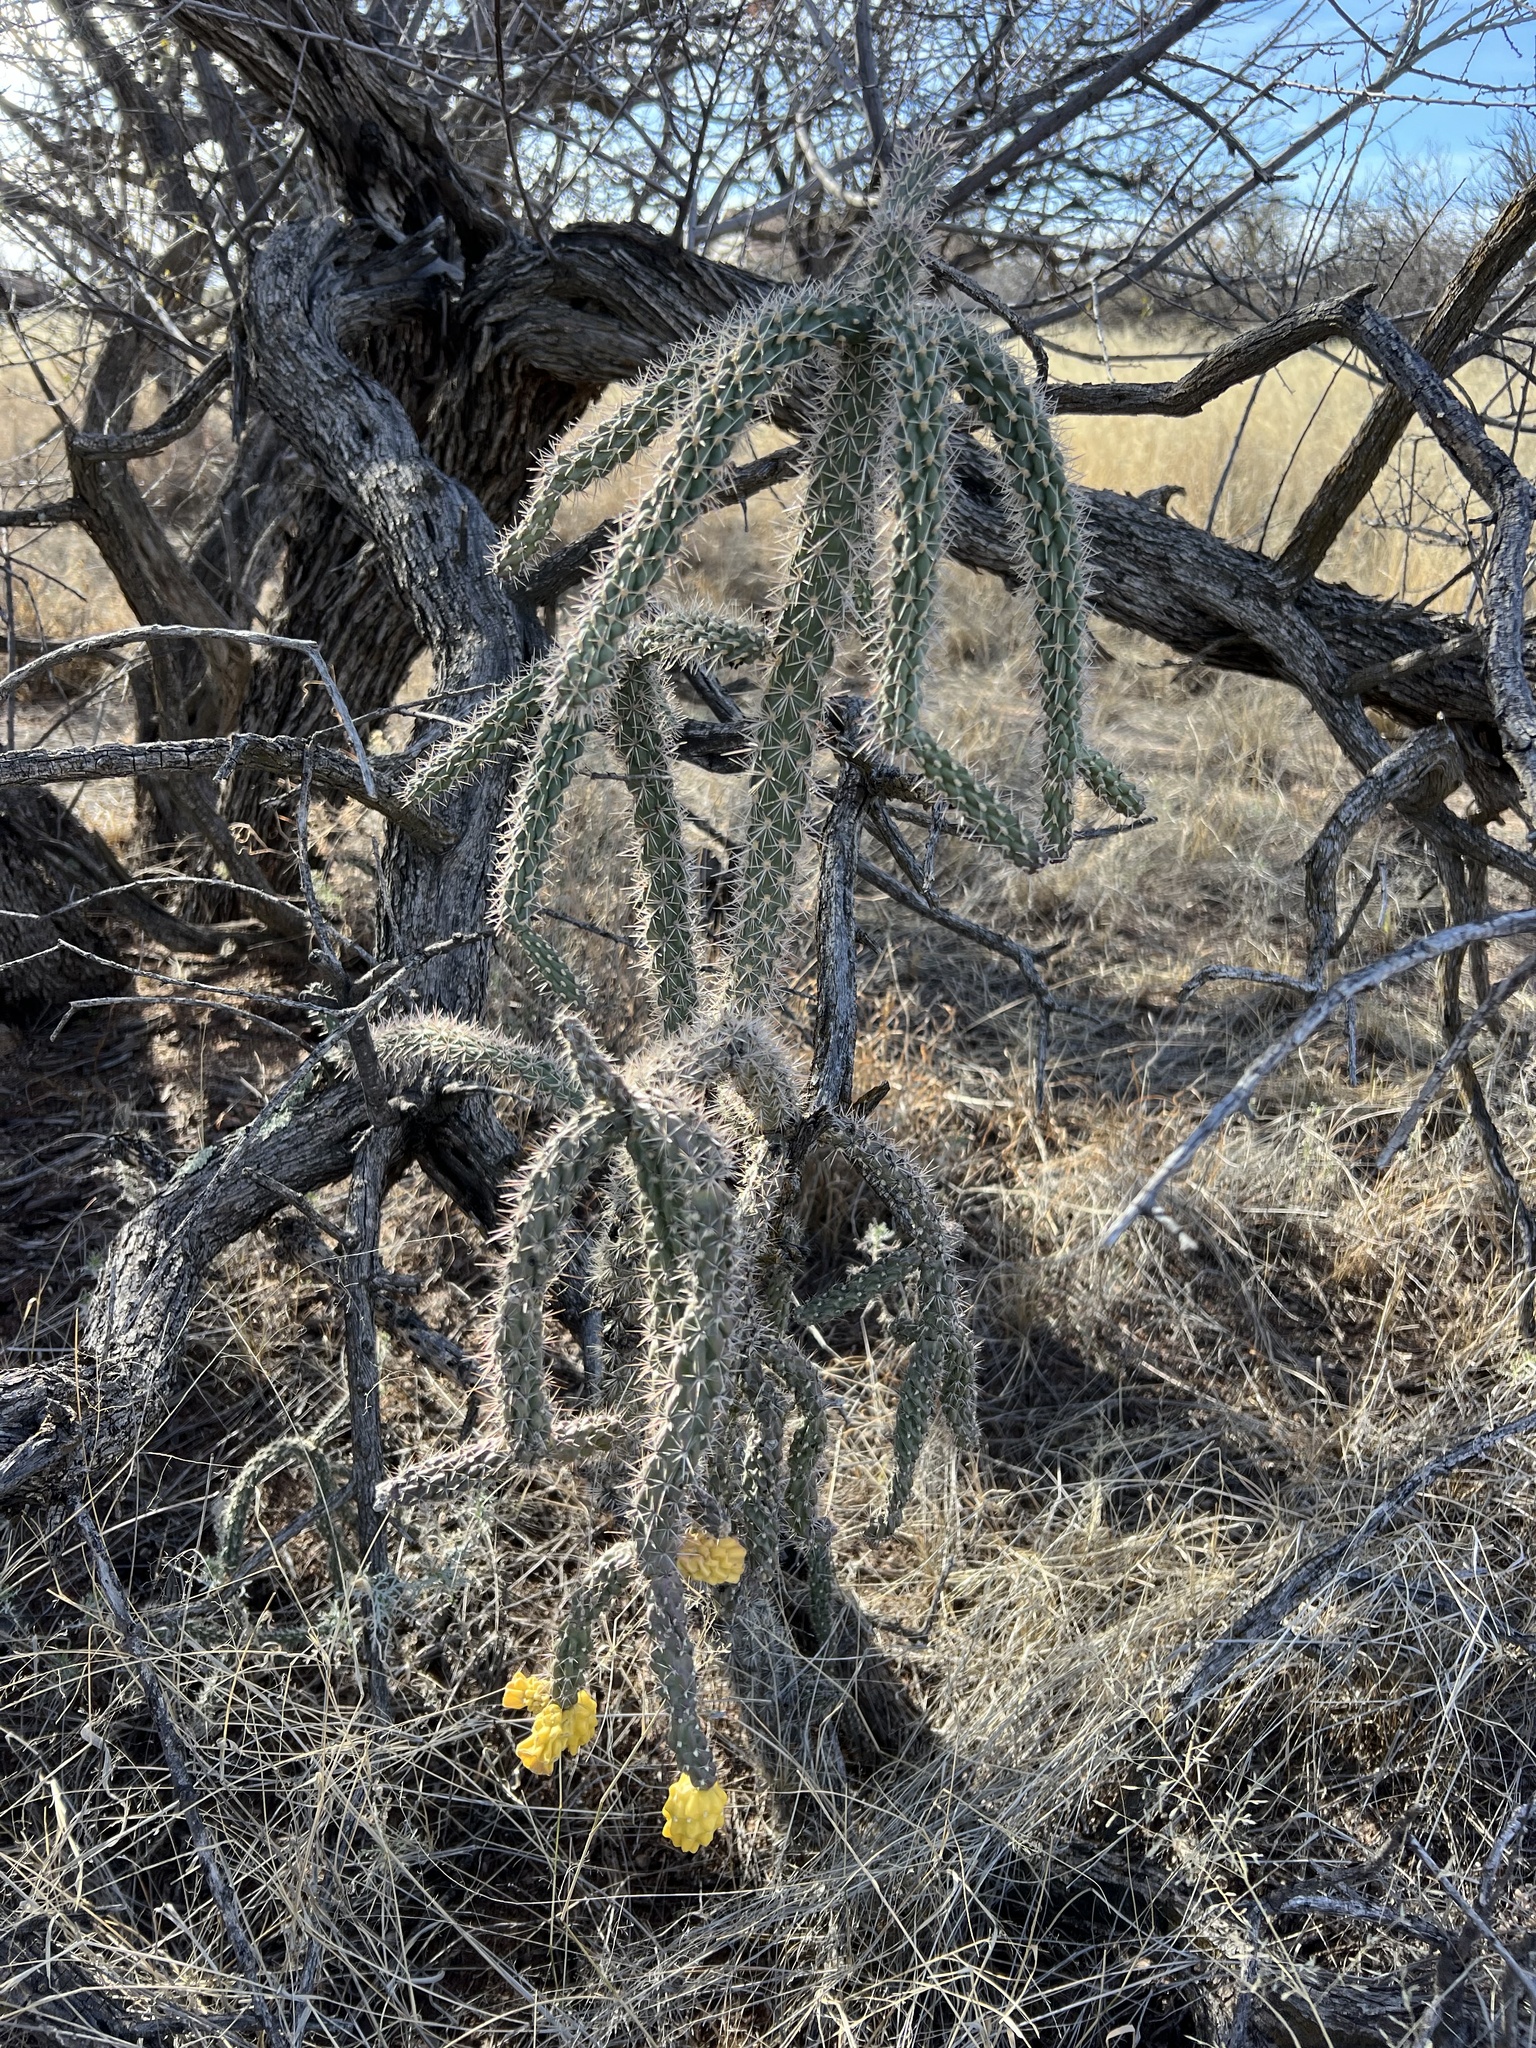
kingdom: Plantae
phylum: Tracheophyta
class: Magnoliopsida
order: Caryophyllales
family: Cactaceae
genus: Cylindropuntia
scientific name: Cylindropuntia imbricata
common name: Candelabrum cactus
